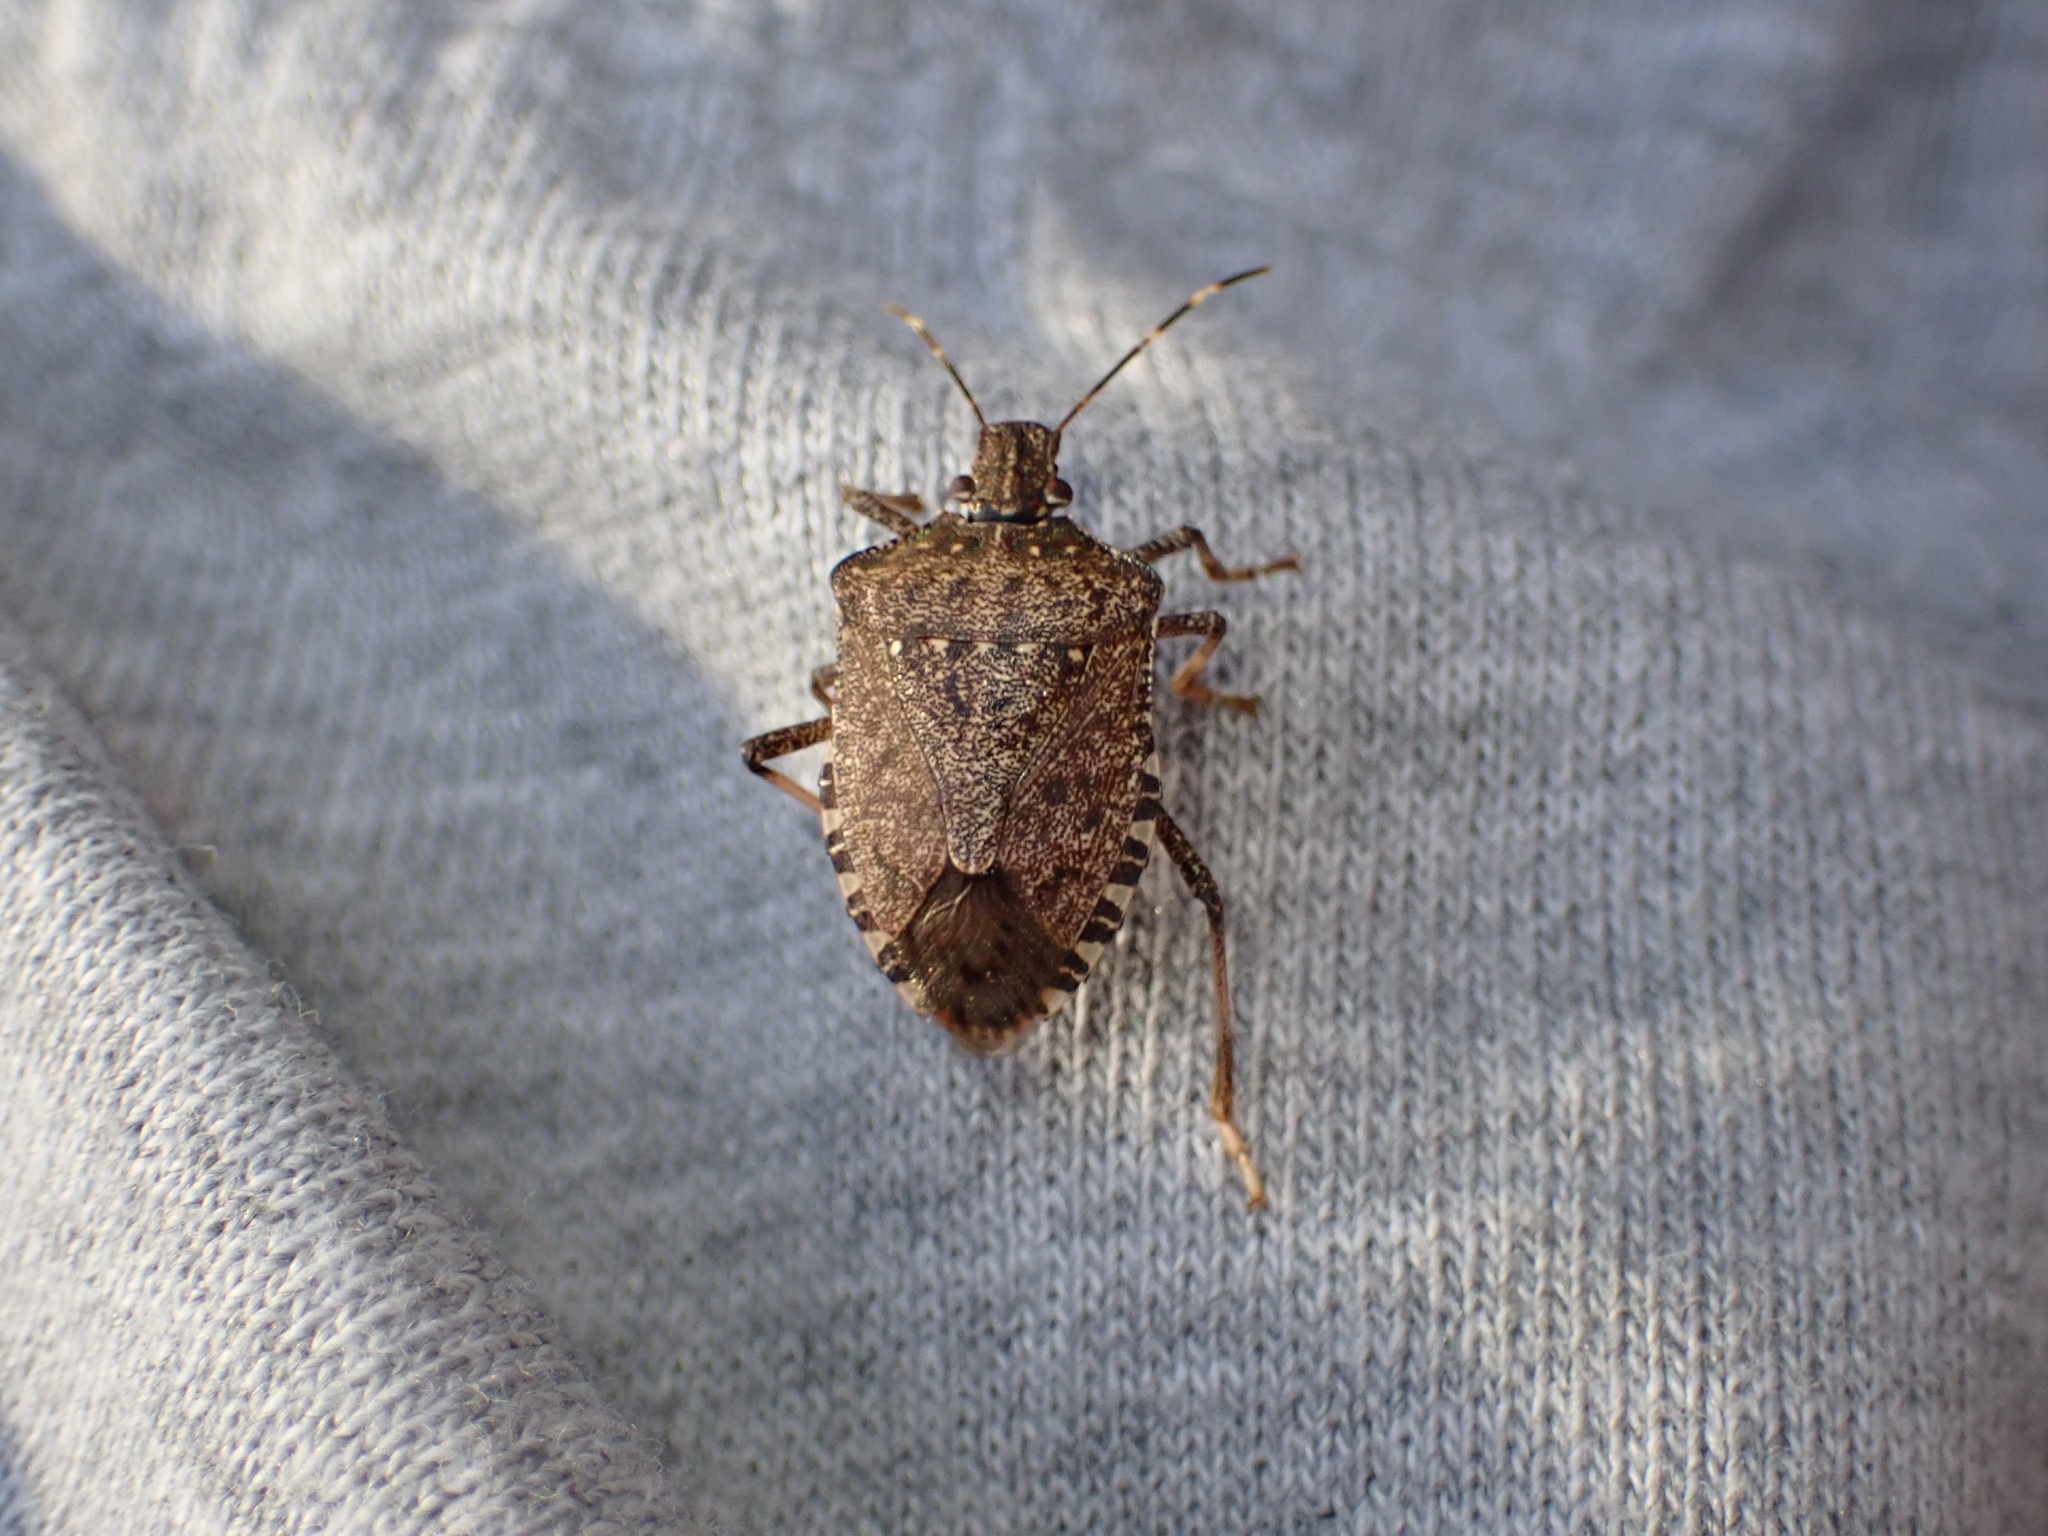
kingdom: Animalia
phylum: Arthropoda
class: Insecta
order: Hemiptera
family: Pentatomidae
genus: Halyomorpha
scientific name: Halyomorpha halys
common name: Brown marmorated stink bug
